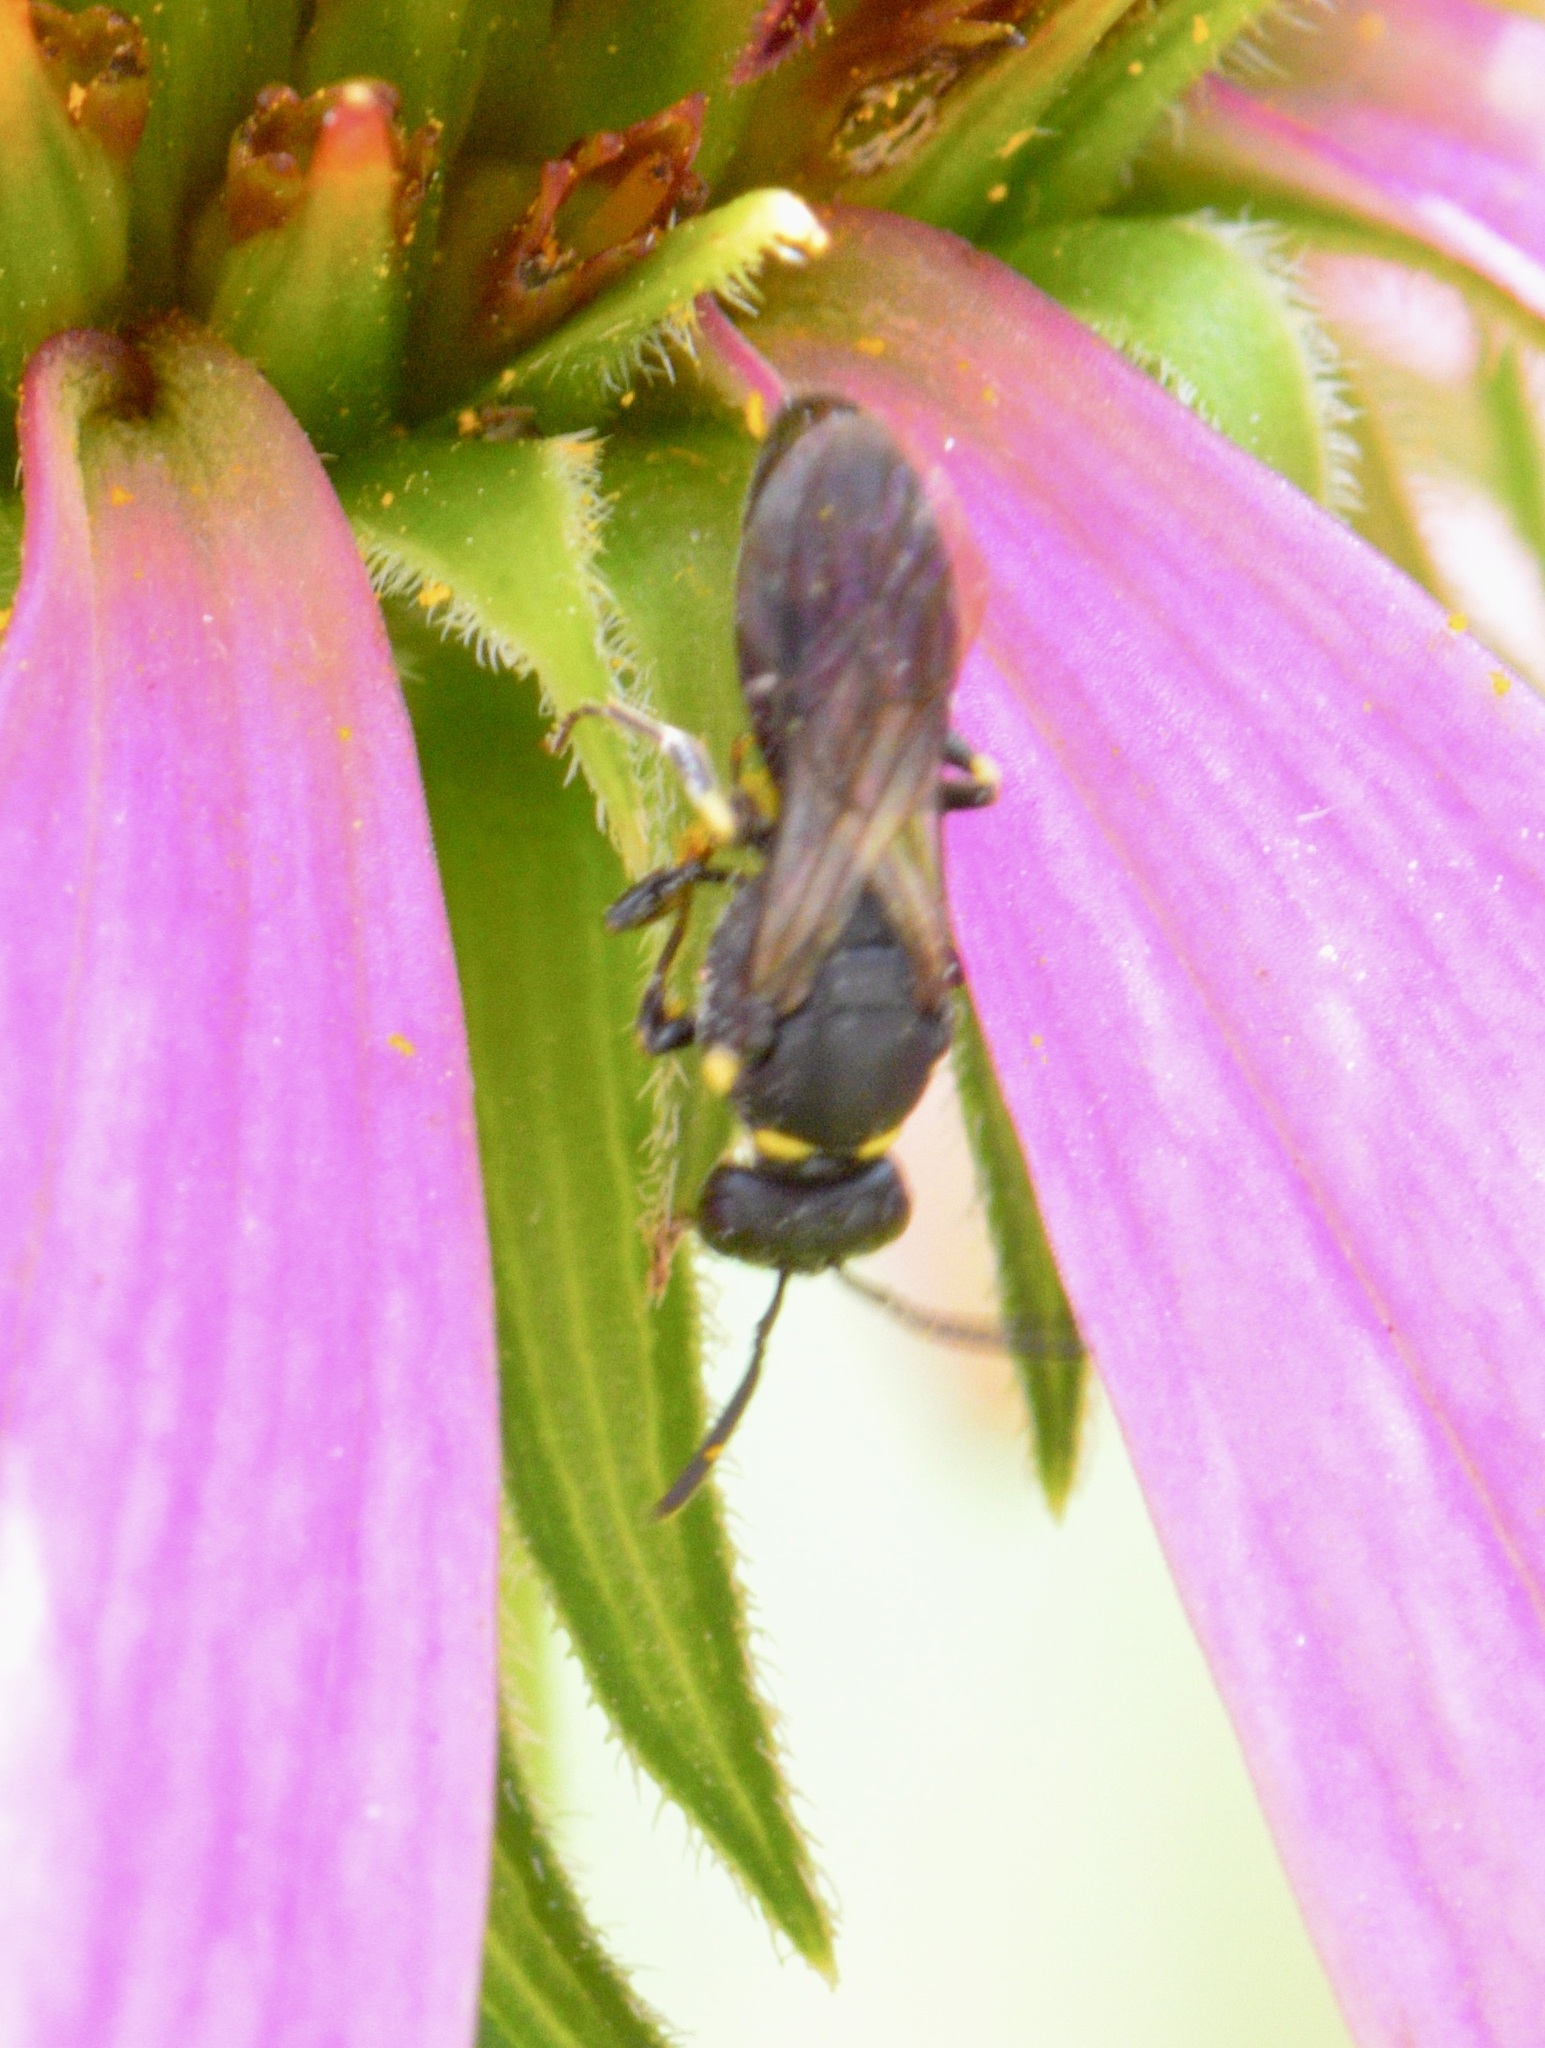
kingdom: Animalia
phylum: Arthropoda
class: Insecta
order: Hymenoptera
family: Colletidae
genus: Hylaeus
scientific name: Hylaeus modestus
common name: Yellow-faced bee
